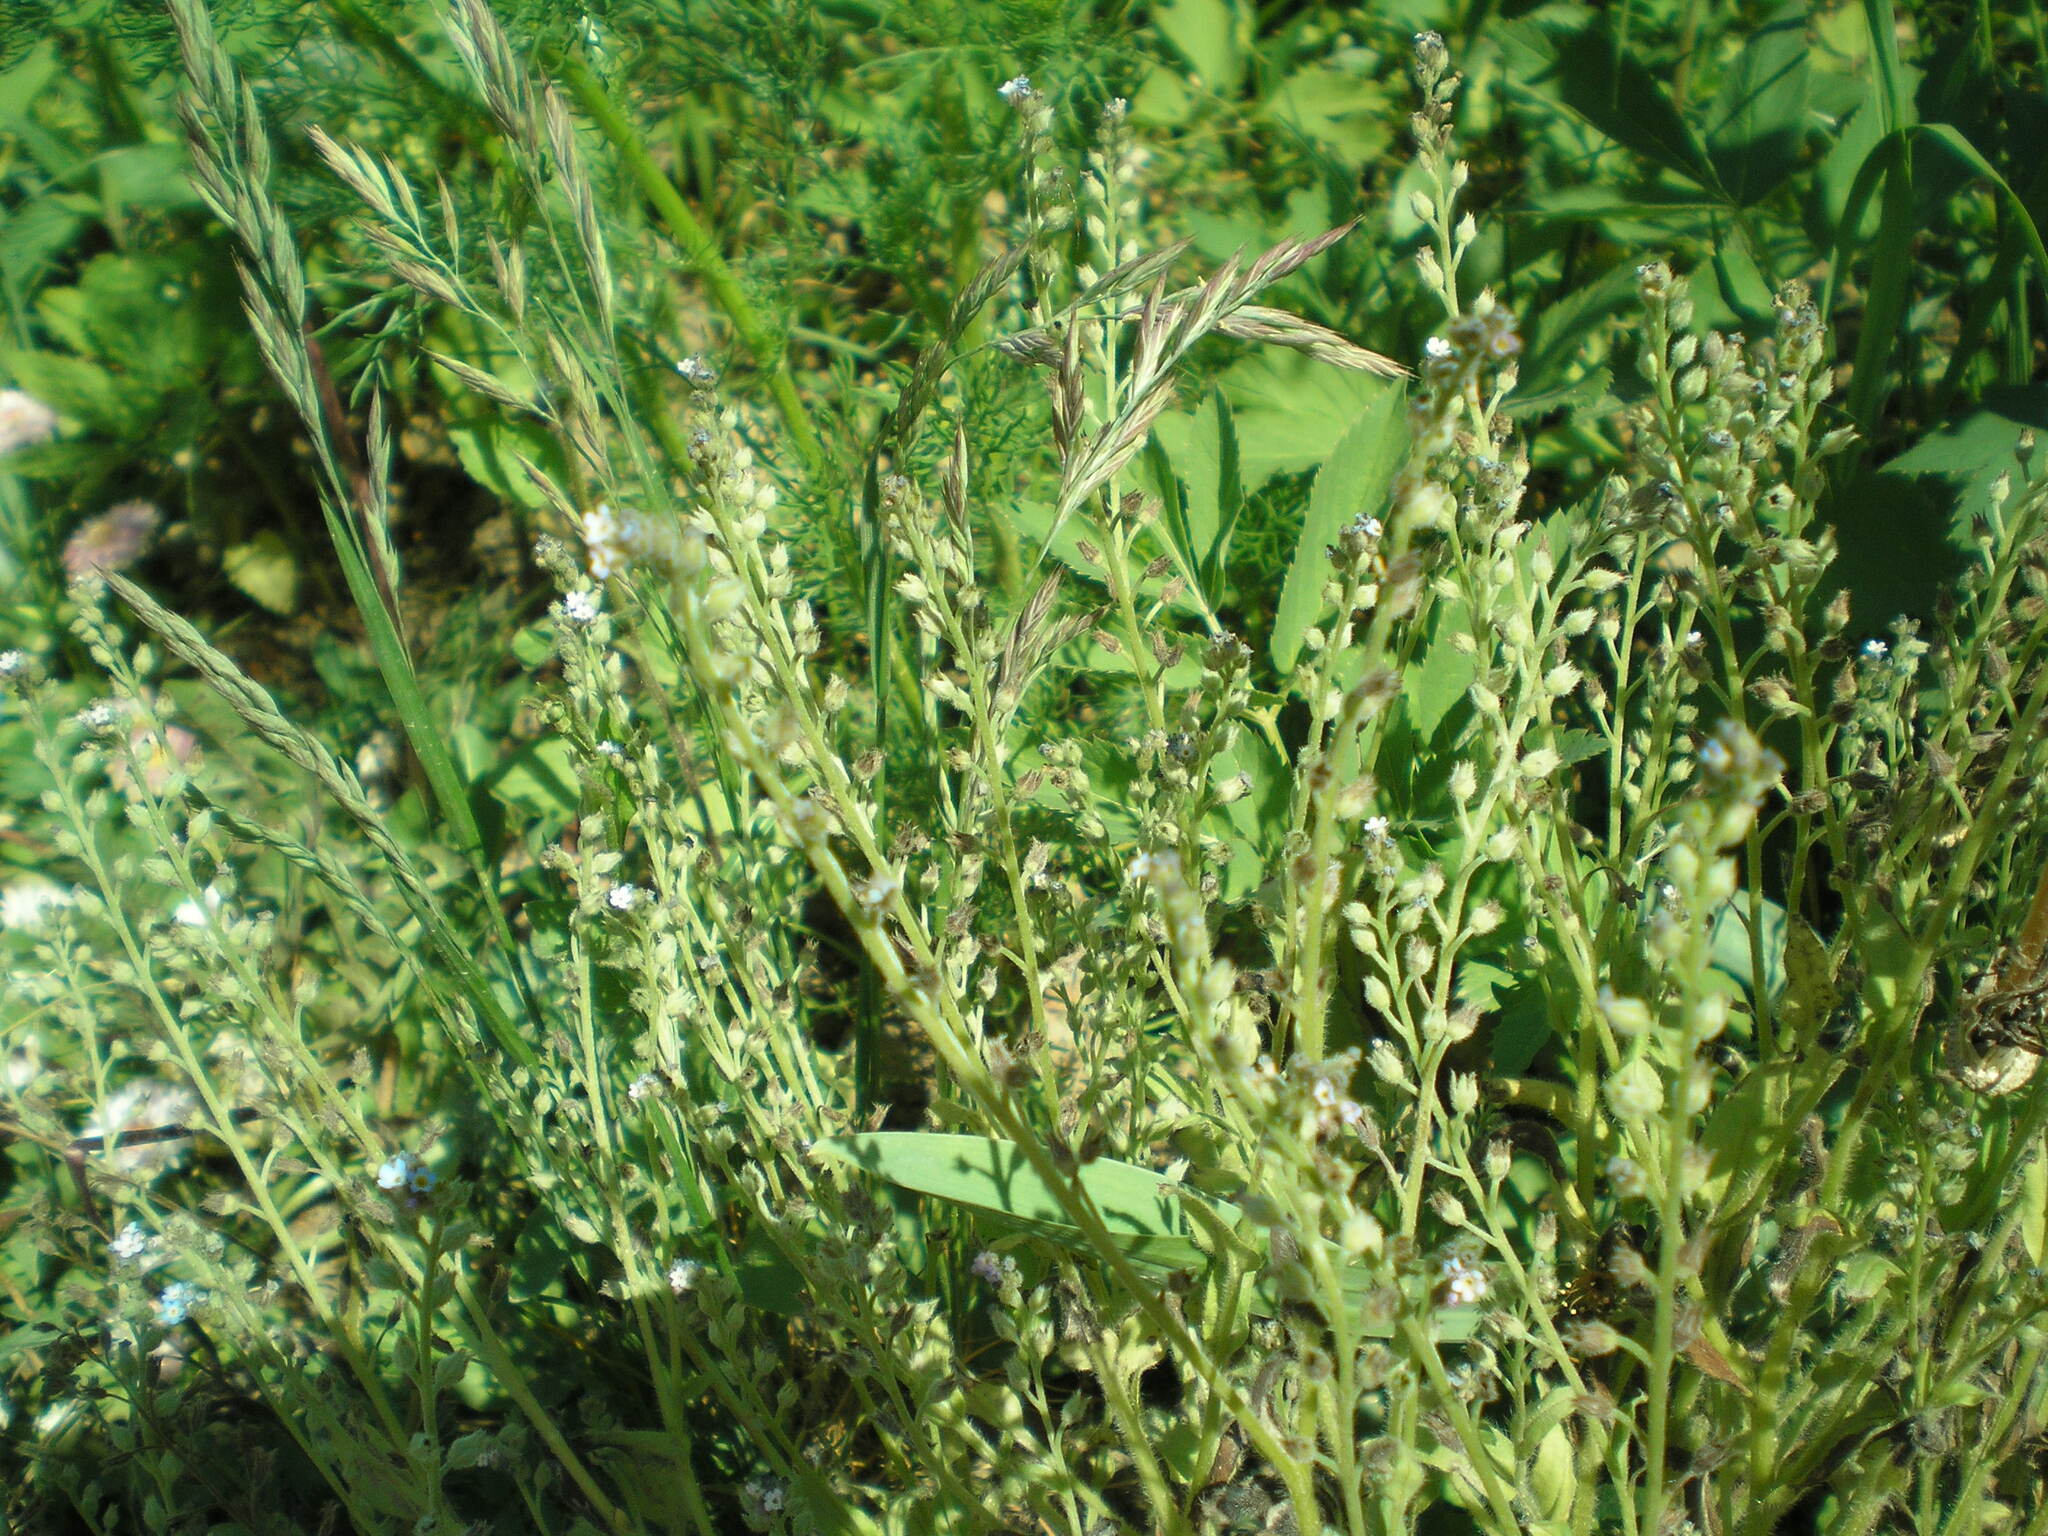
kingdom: Plantae
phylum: Tracheophyta
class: Magnoliopsida
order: Boraginales
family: Boraginaceae
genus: Myosotis
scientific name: Myosotis arvensis
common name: Field forget-me-not
